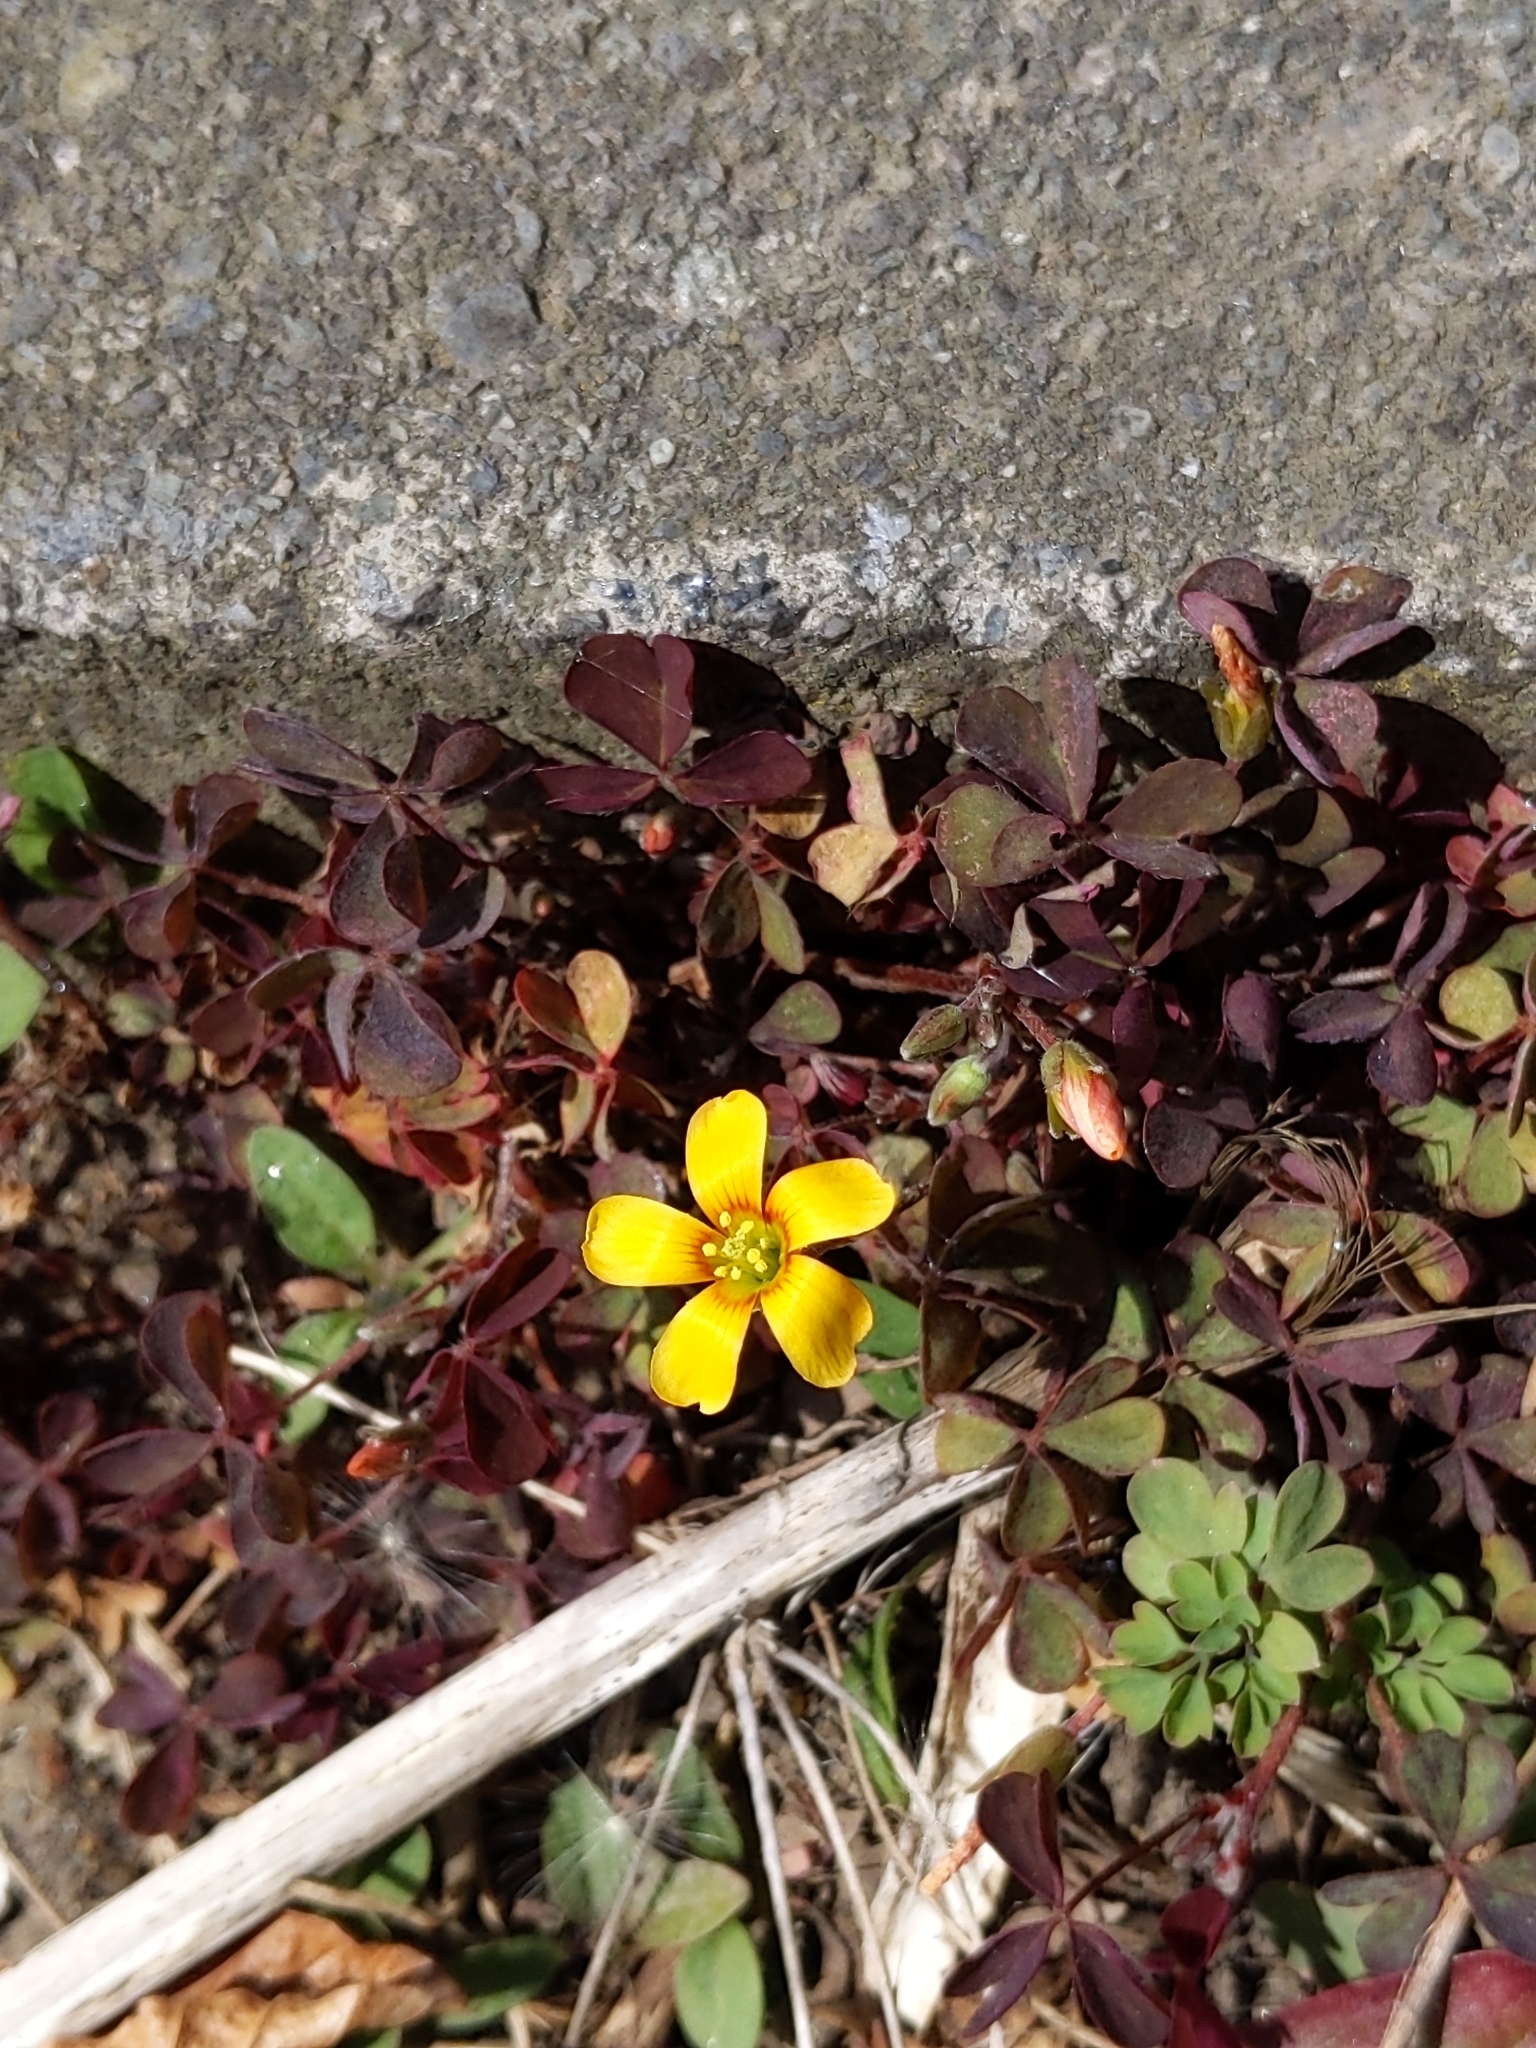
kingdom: Plantae
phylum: Tracheophyta
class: Magnoliopsida
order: Oxalidales
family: Oxalidaceae
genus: Oxalis
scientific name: Oxalis corniculata
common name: Procumbent yellow-sorrel
